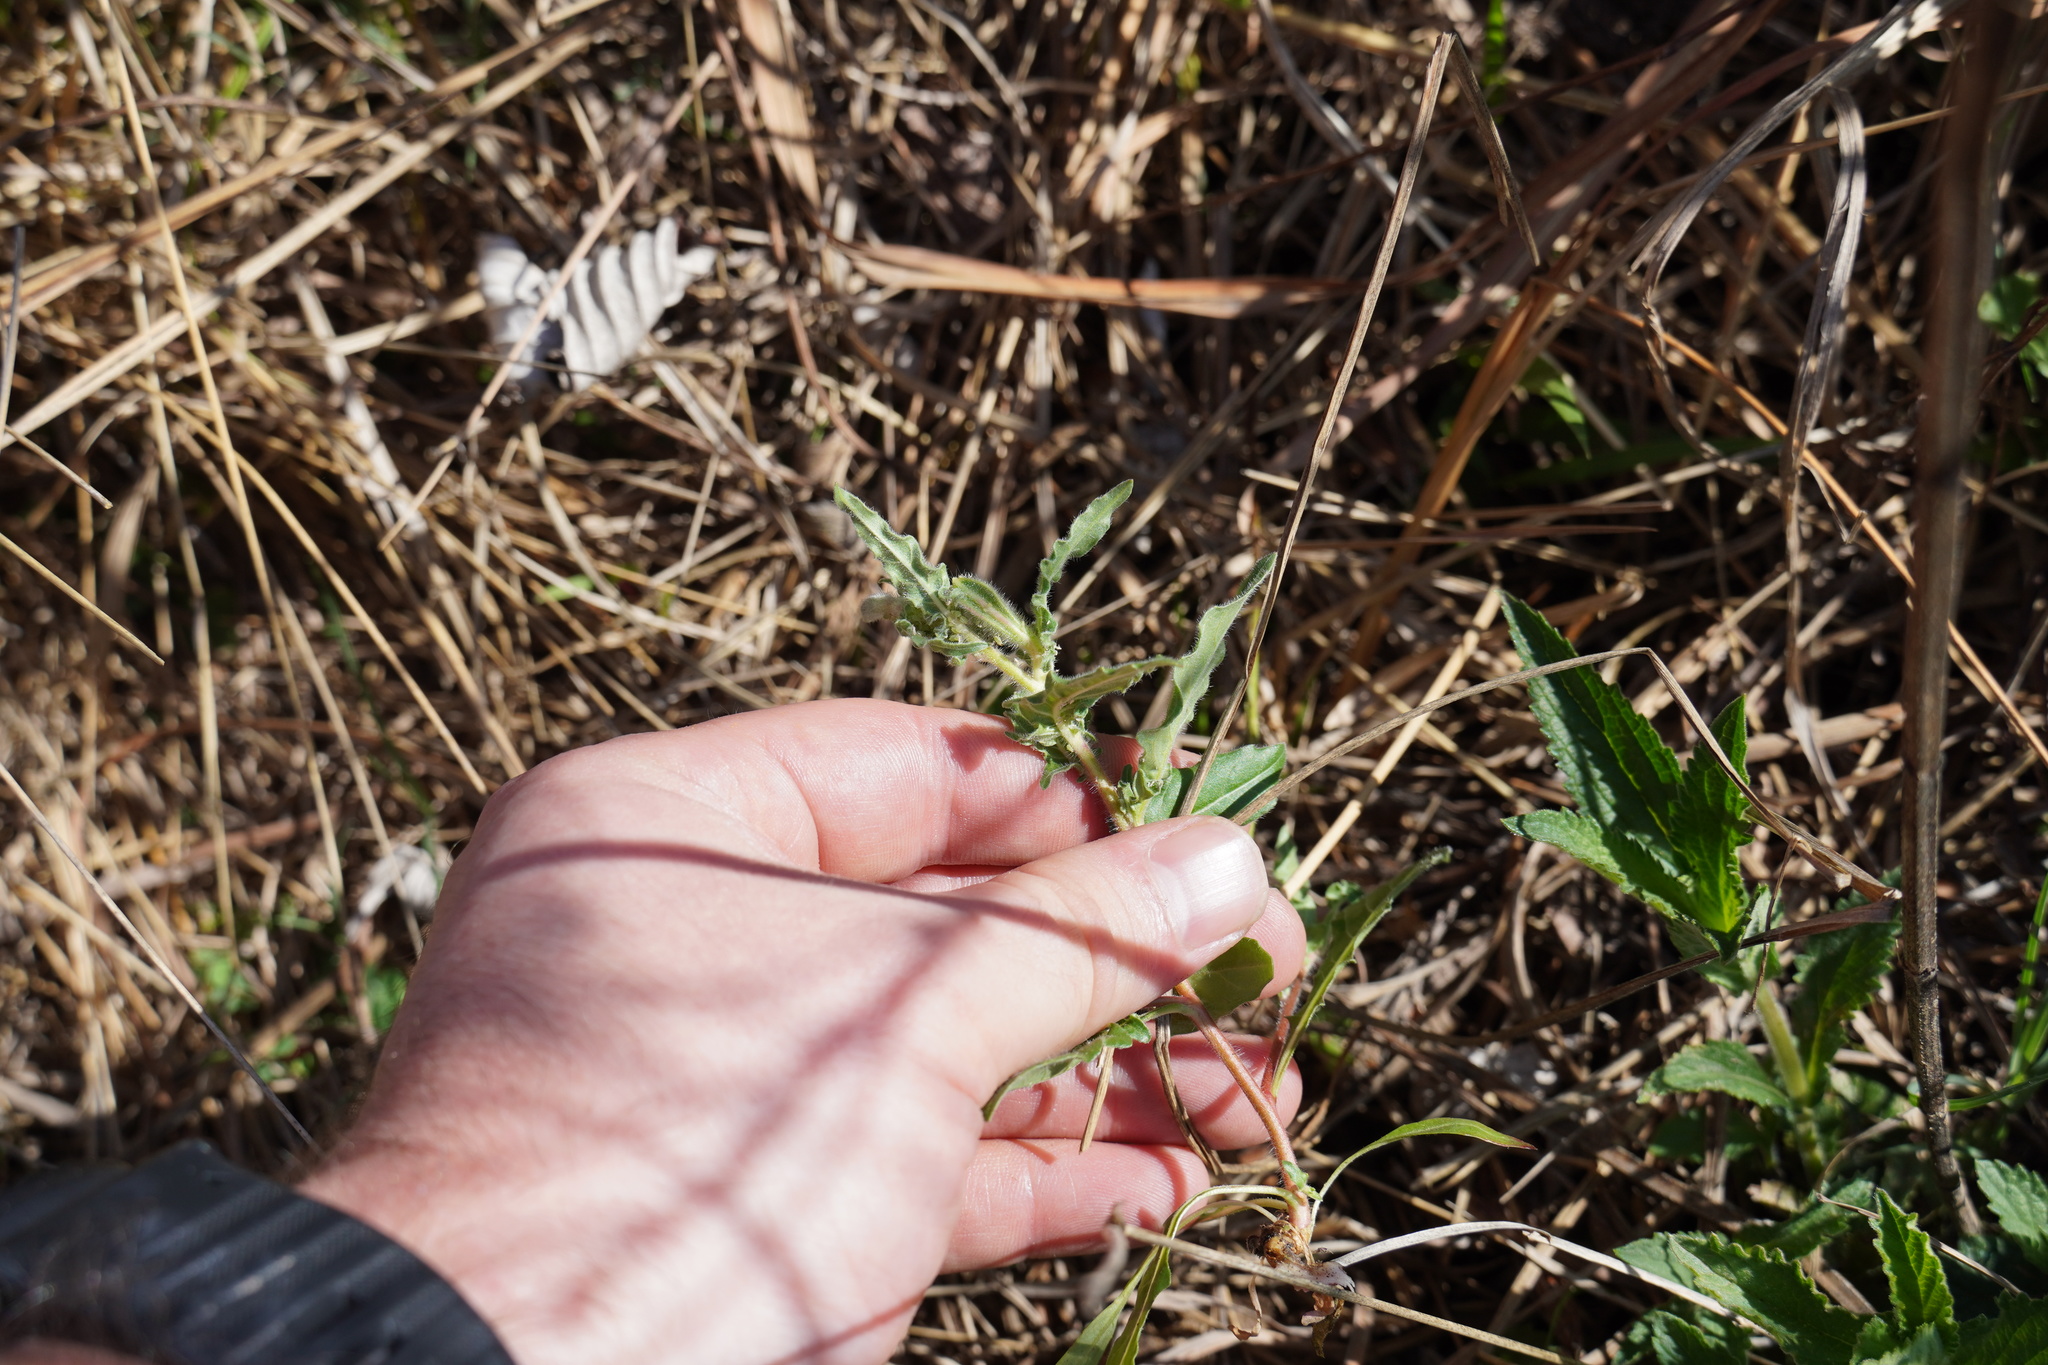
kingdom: Plantae
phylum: Tracheophyta
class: Magnoliopsida
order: Myrtales
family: Onagraceae
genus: Oenothera
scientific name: Oenothera tetraptera
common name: Four-wing evening-primrose
